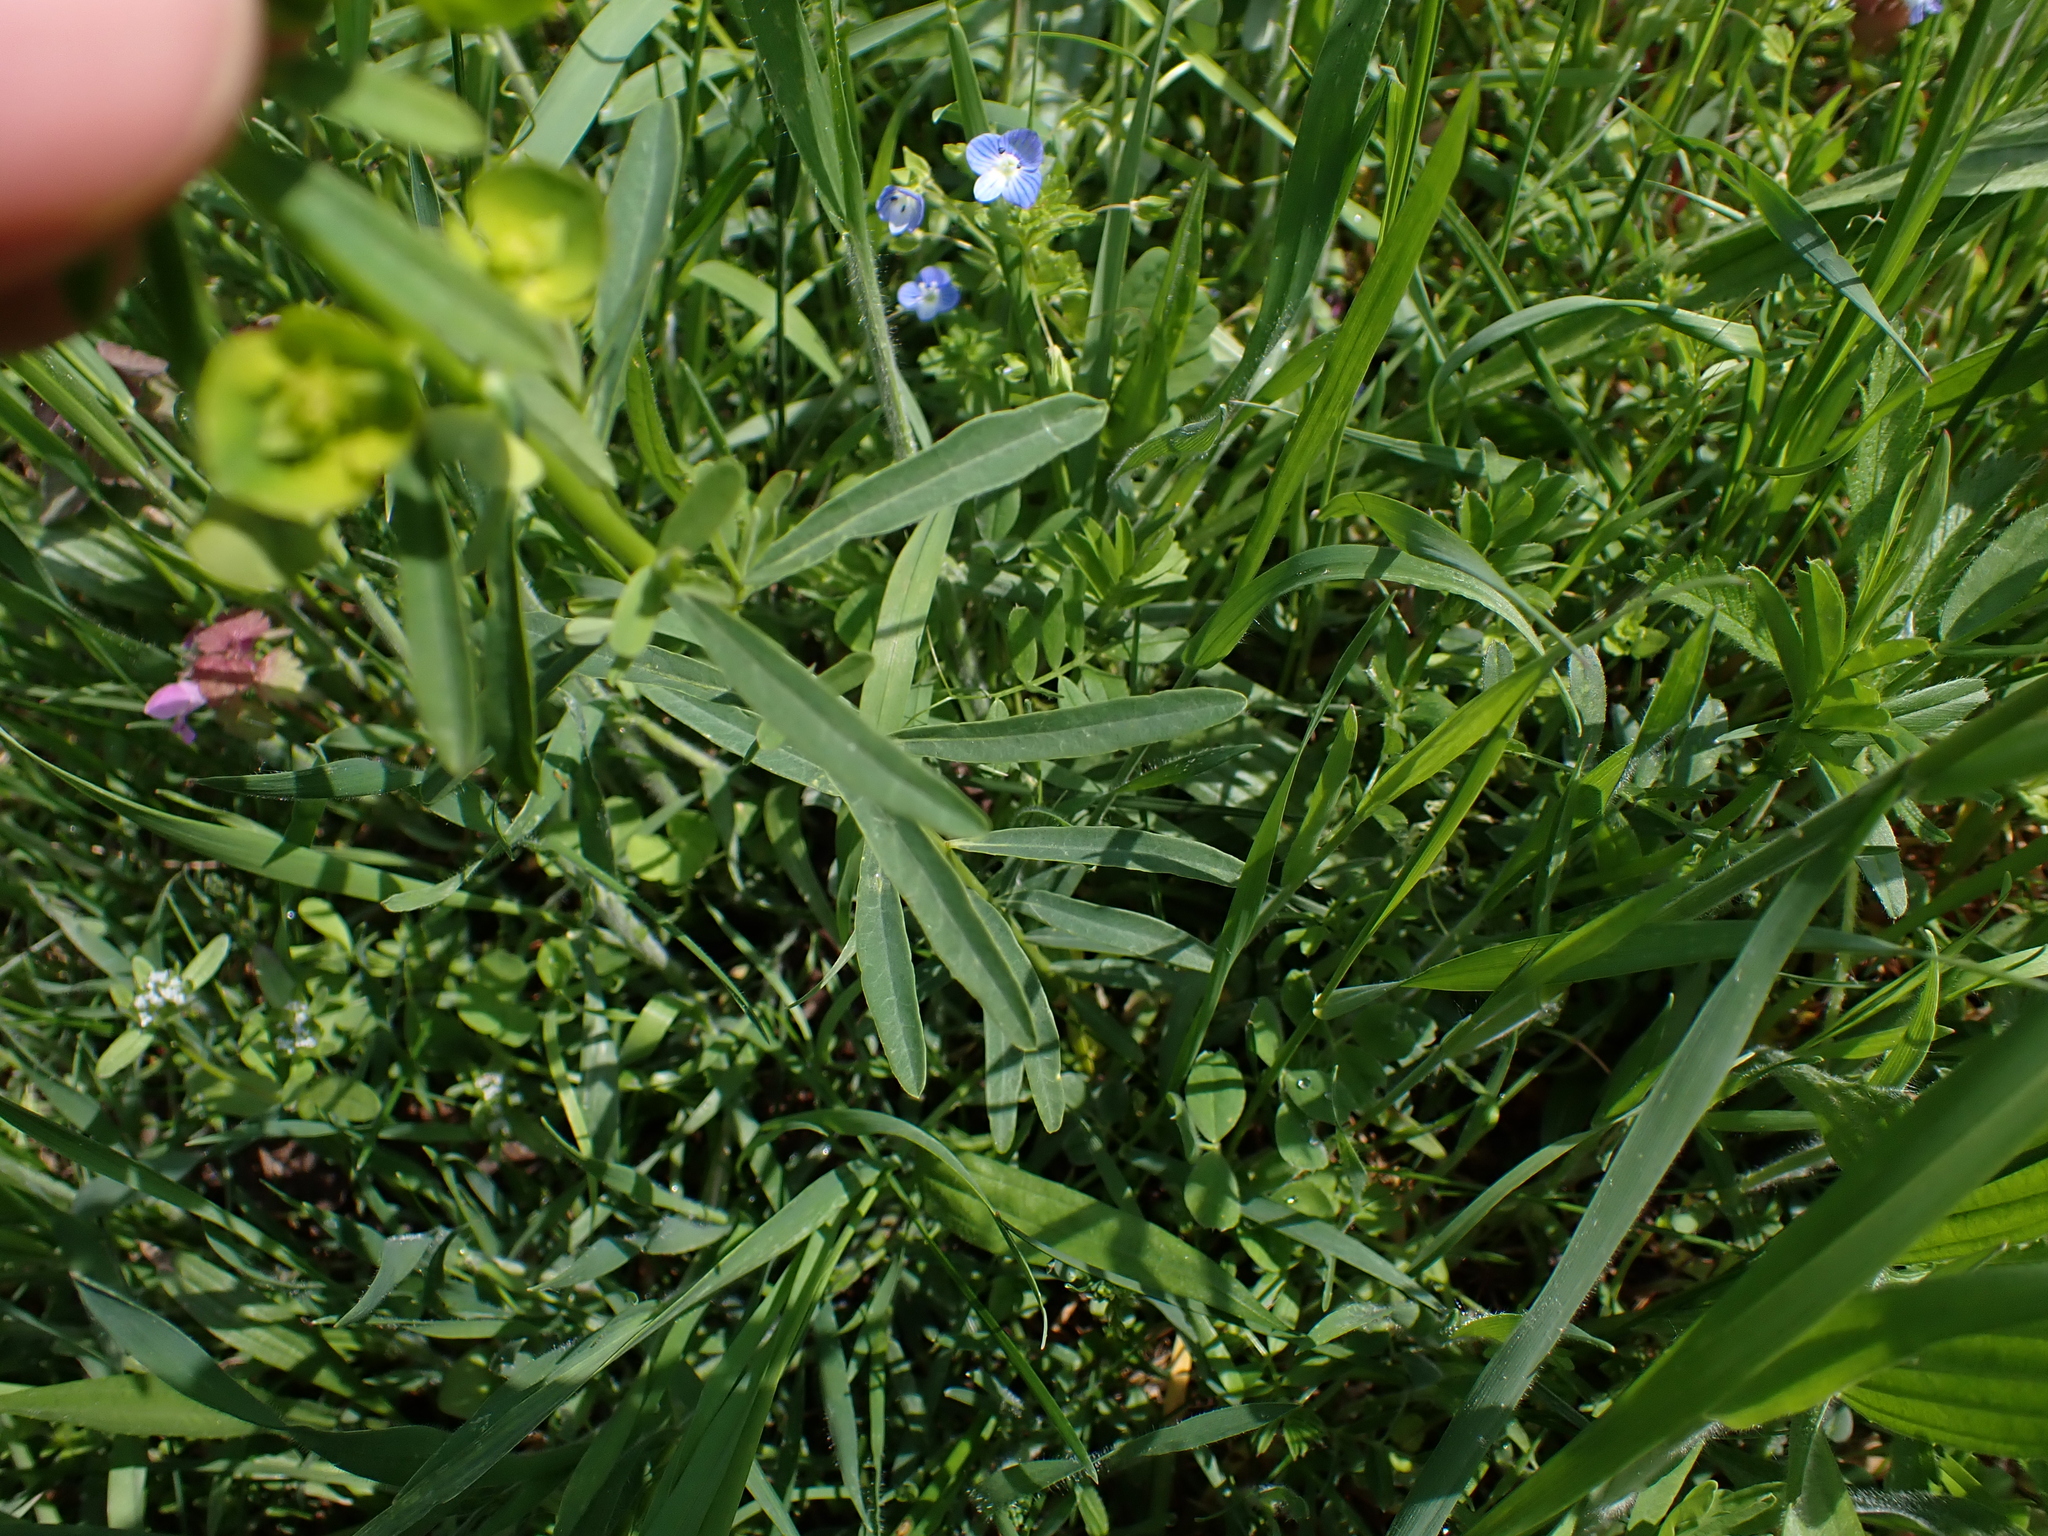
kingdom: Plantae
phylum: Tracheophyta
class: Magnoliopsida
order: Malpighiales
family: Euphorbiaceae
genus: Euphorbia
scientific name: Euphorbia esula
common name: Leafy spurge
